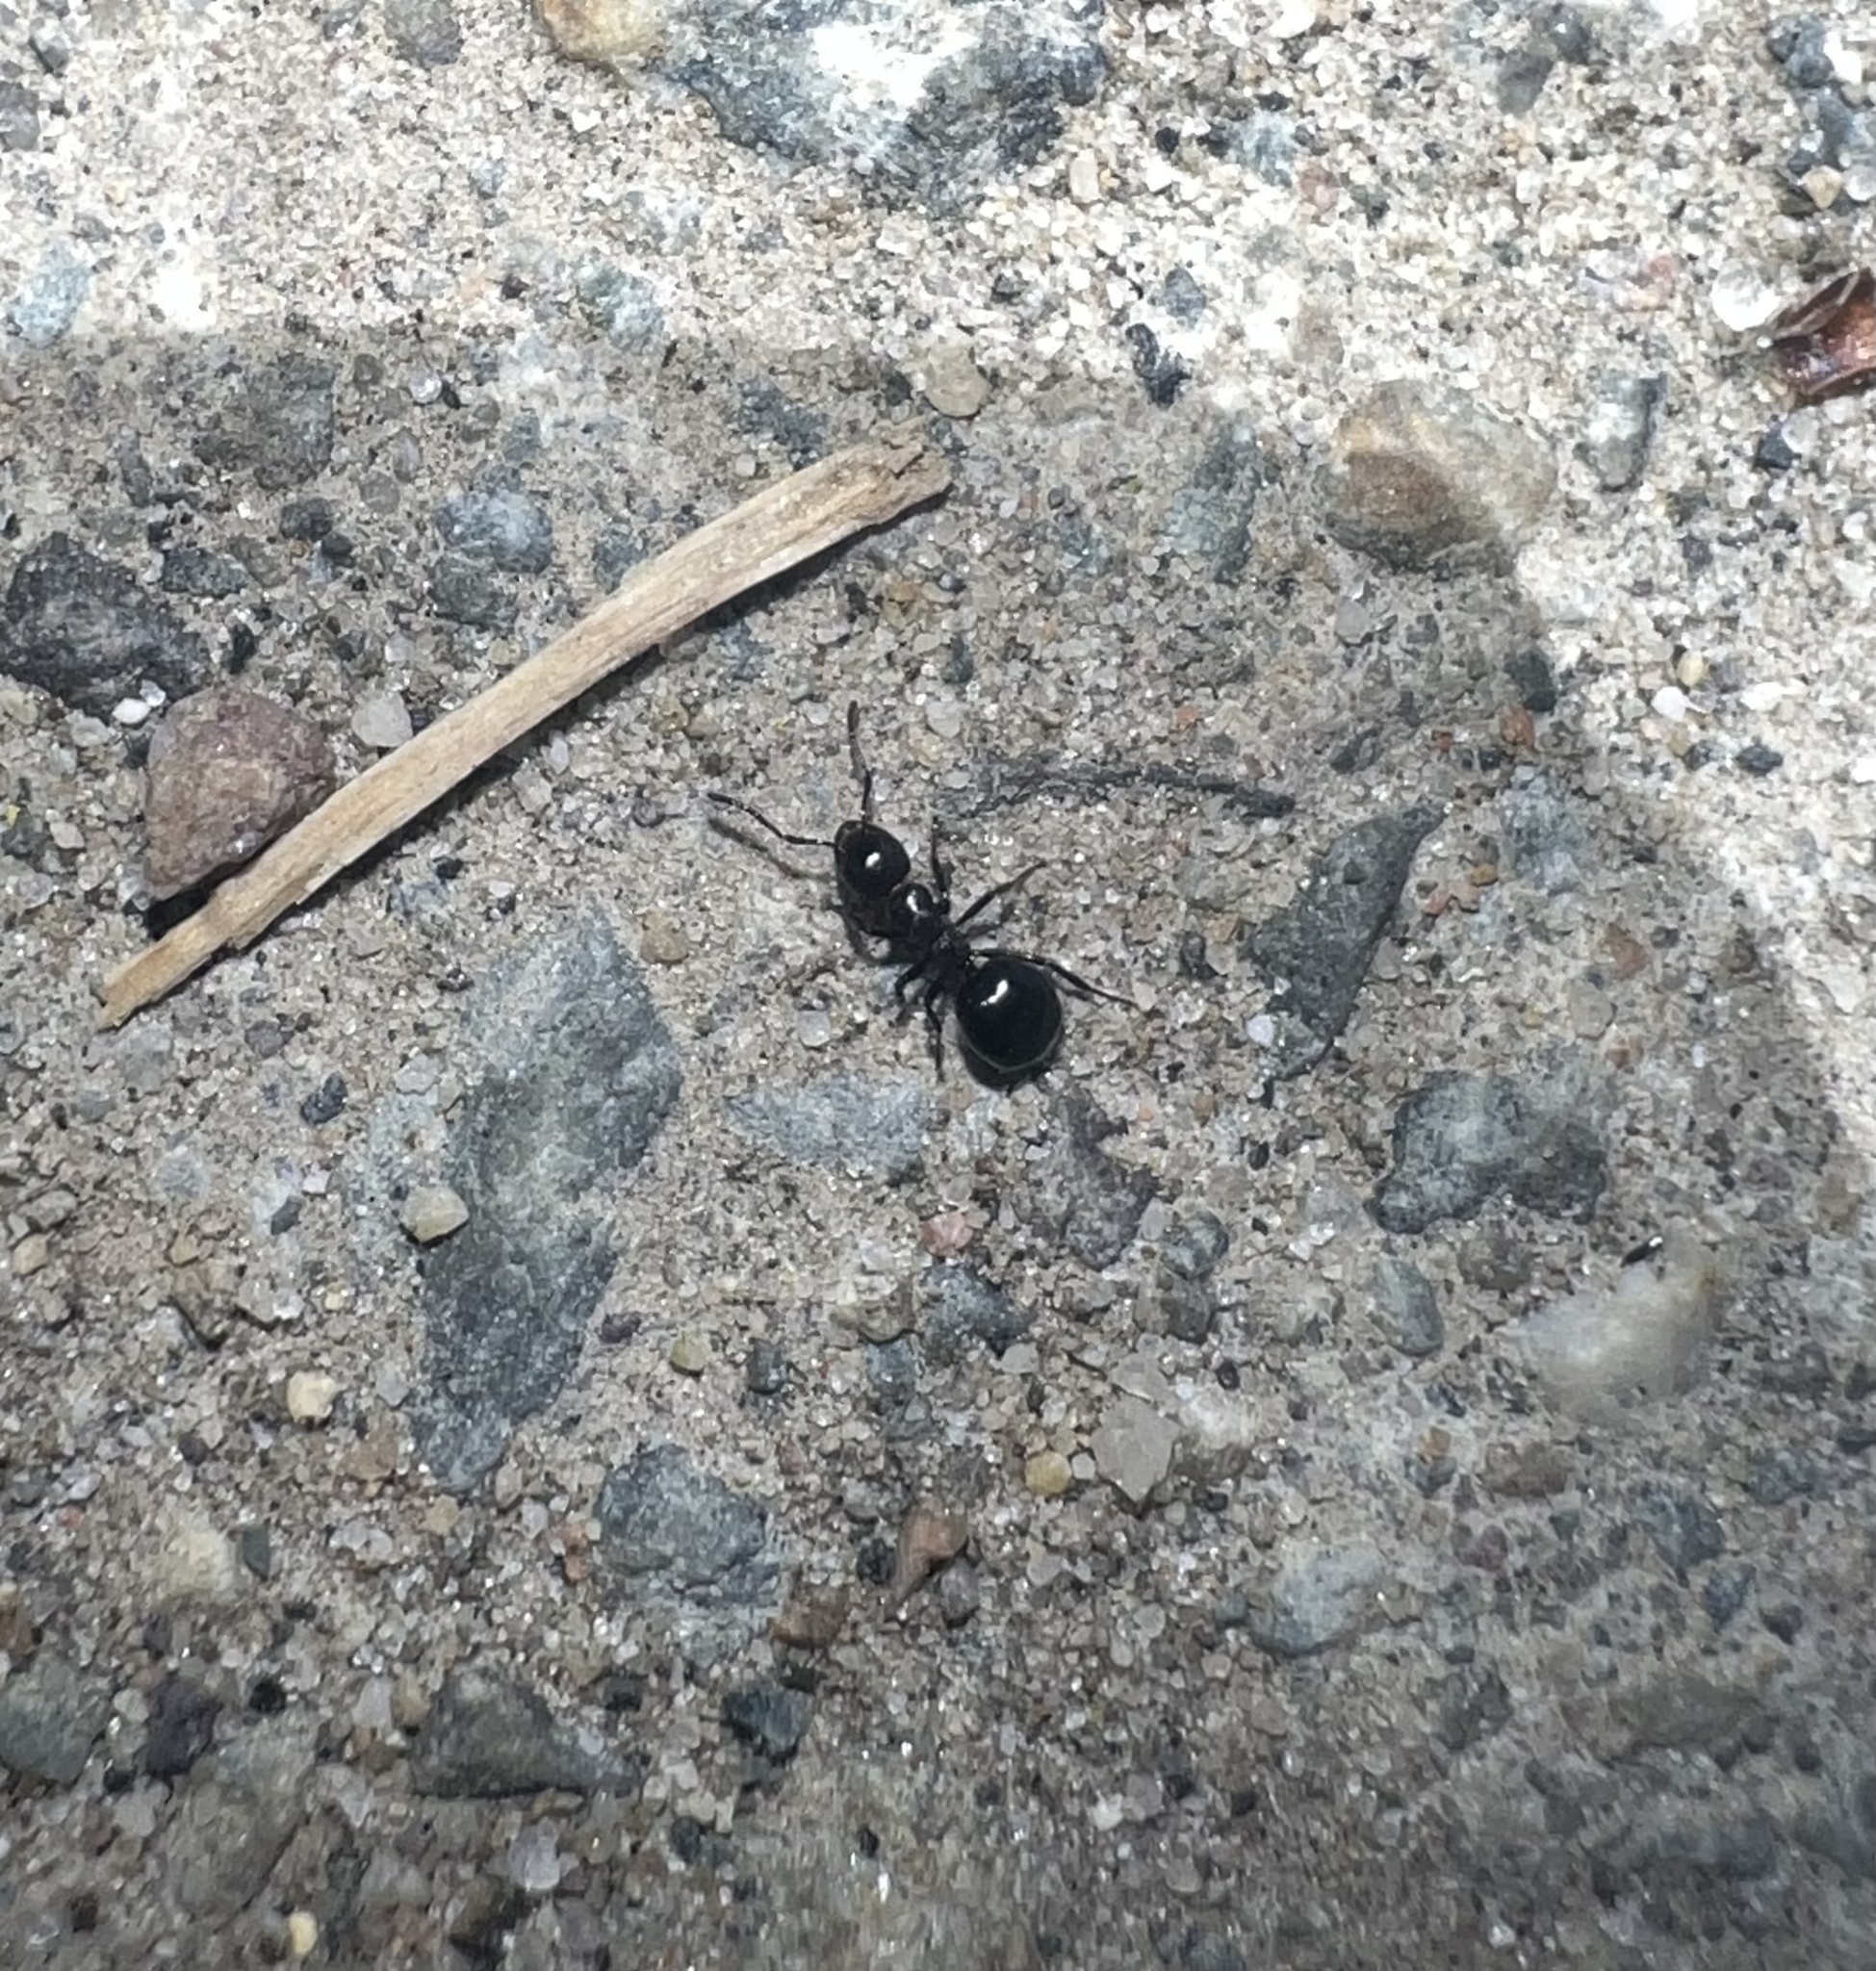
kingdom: Animalia
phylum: Arthropoda
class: Insecta
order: Hymenoptera
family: Formicidae
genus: Dolichoderus
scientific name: Dolichoderus taschenbergi
